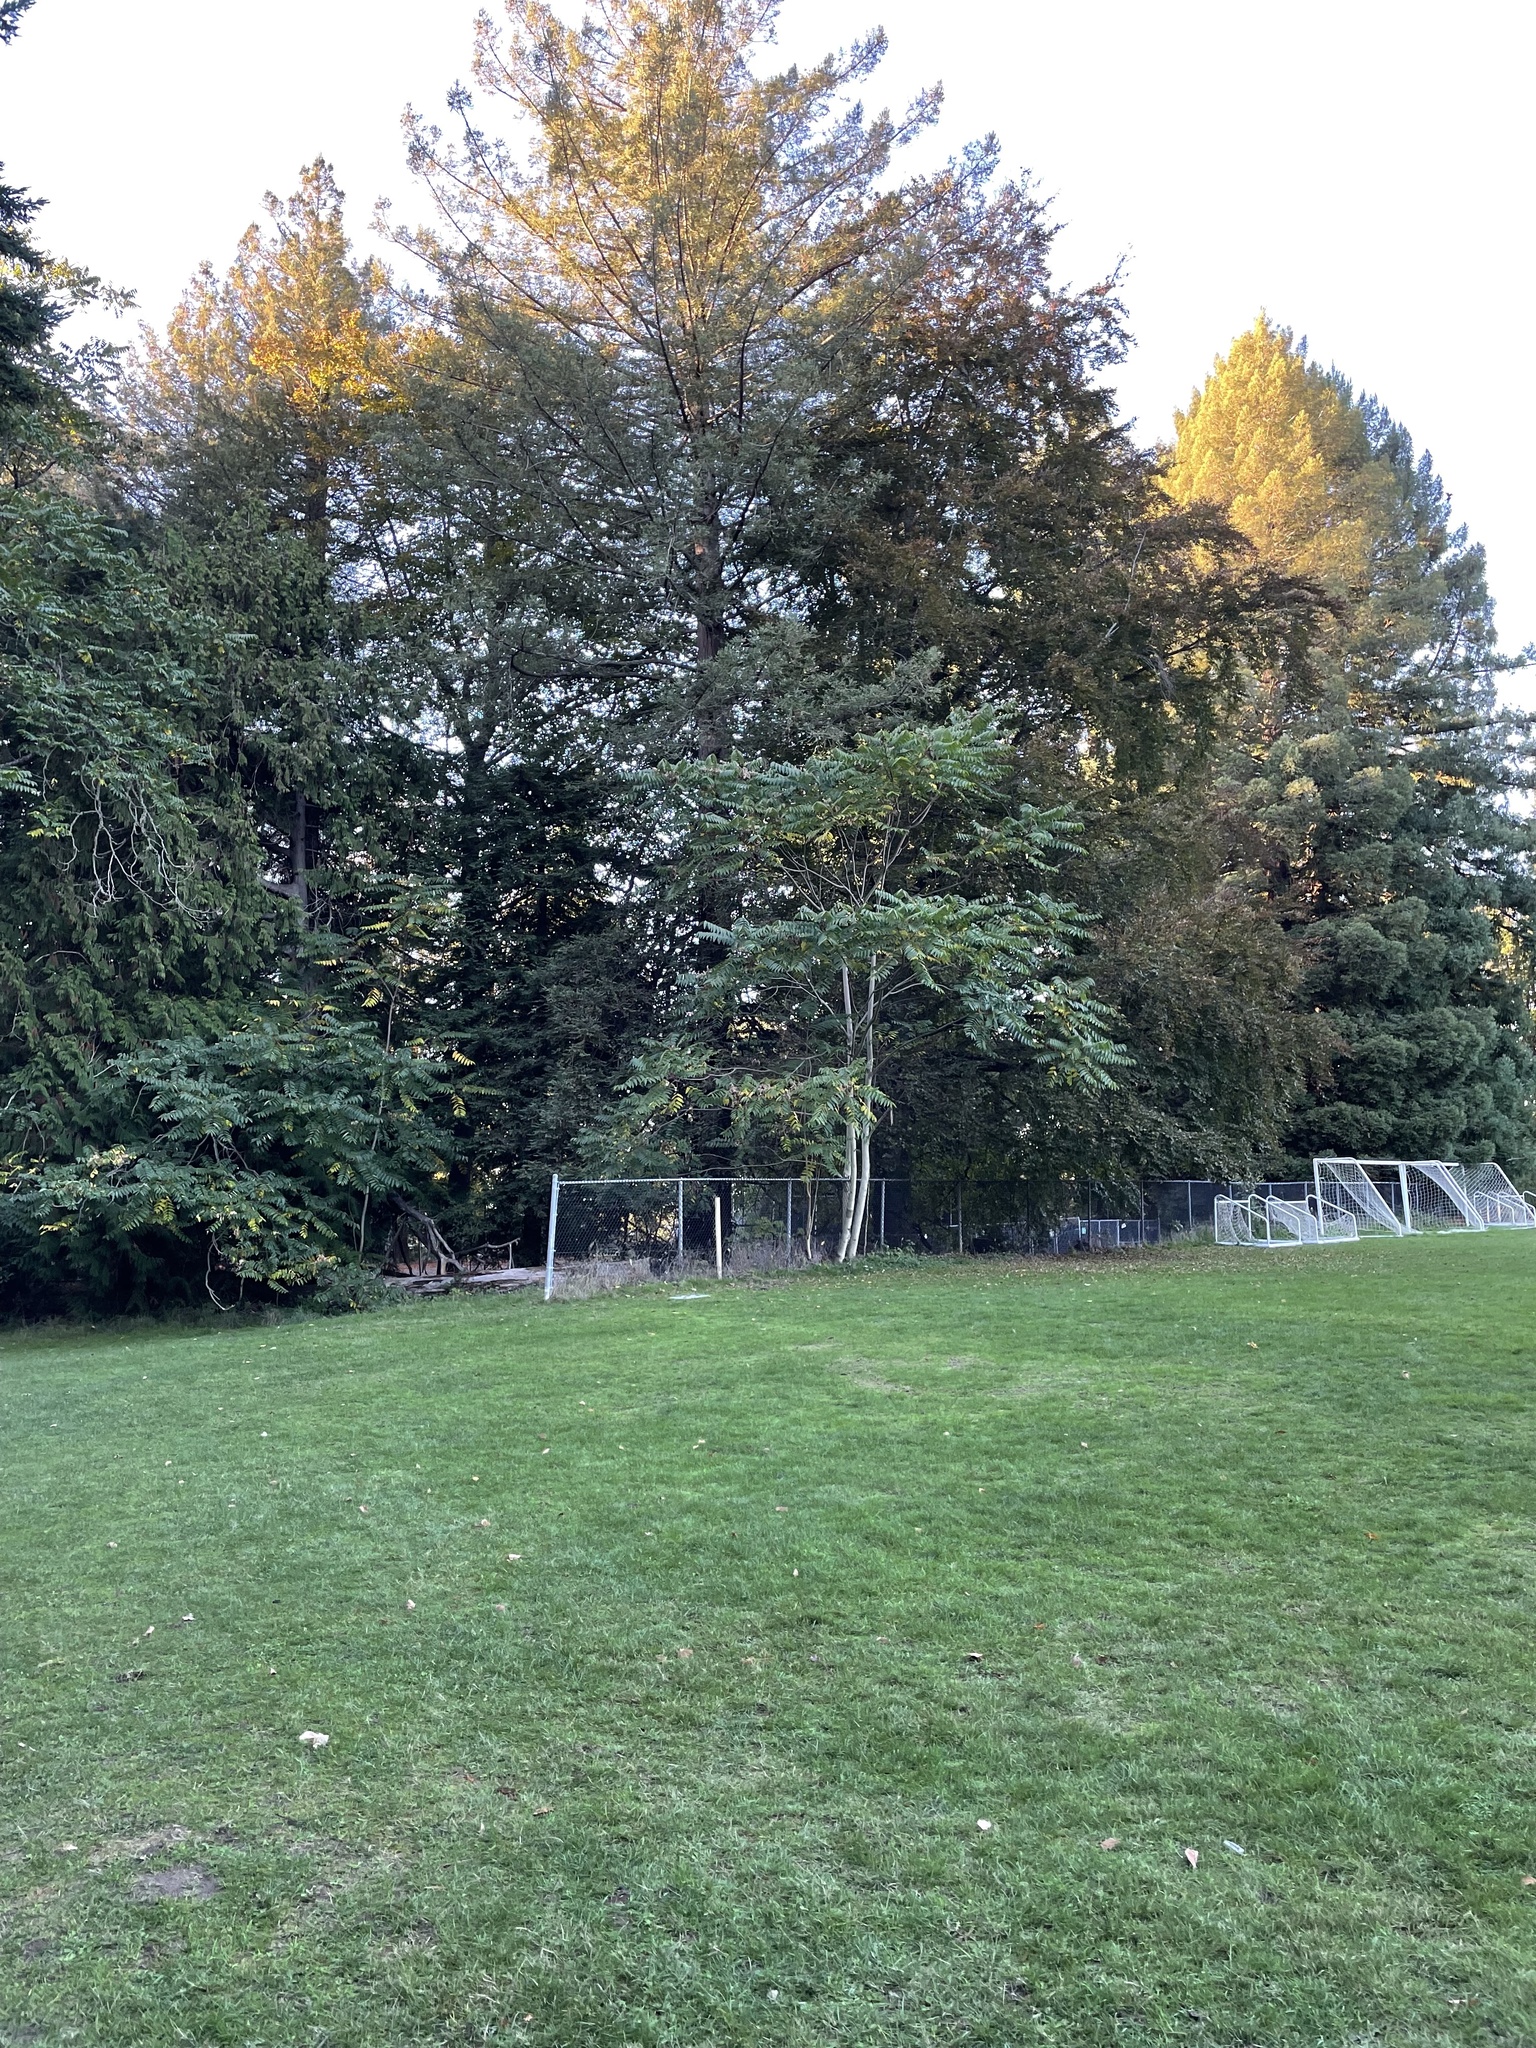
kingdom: Plantae
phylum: Tracheophyta
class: Magnoliopsida
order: Sapindales
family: Simaroubaceae
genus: Ailanthus
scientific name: Ailanthus altissima
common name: Tree-of-heaven
